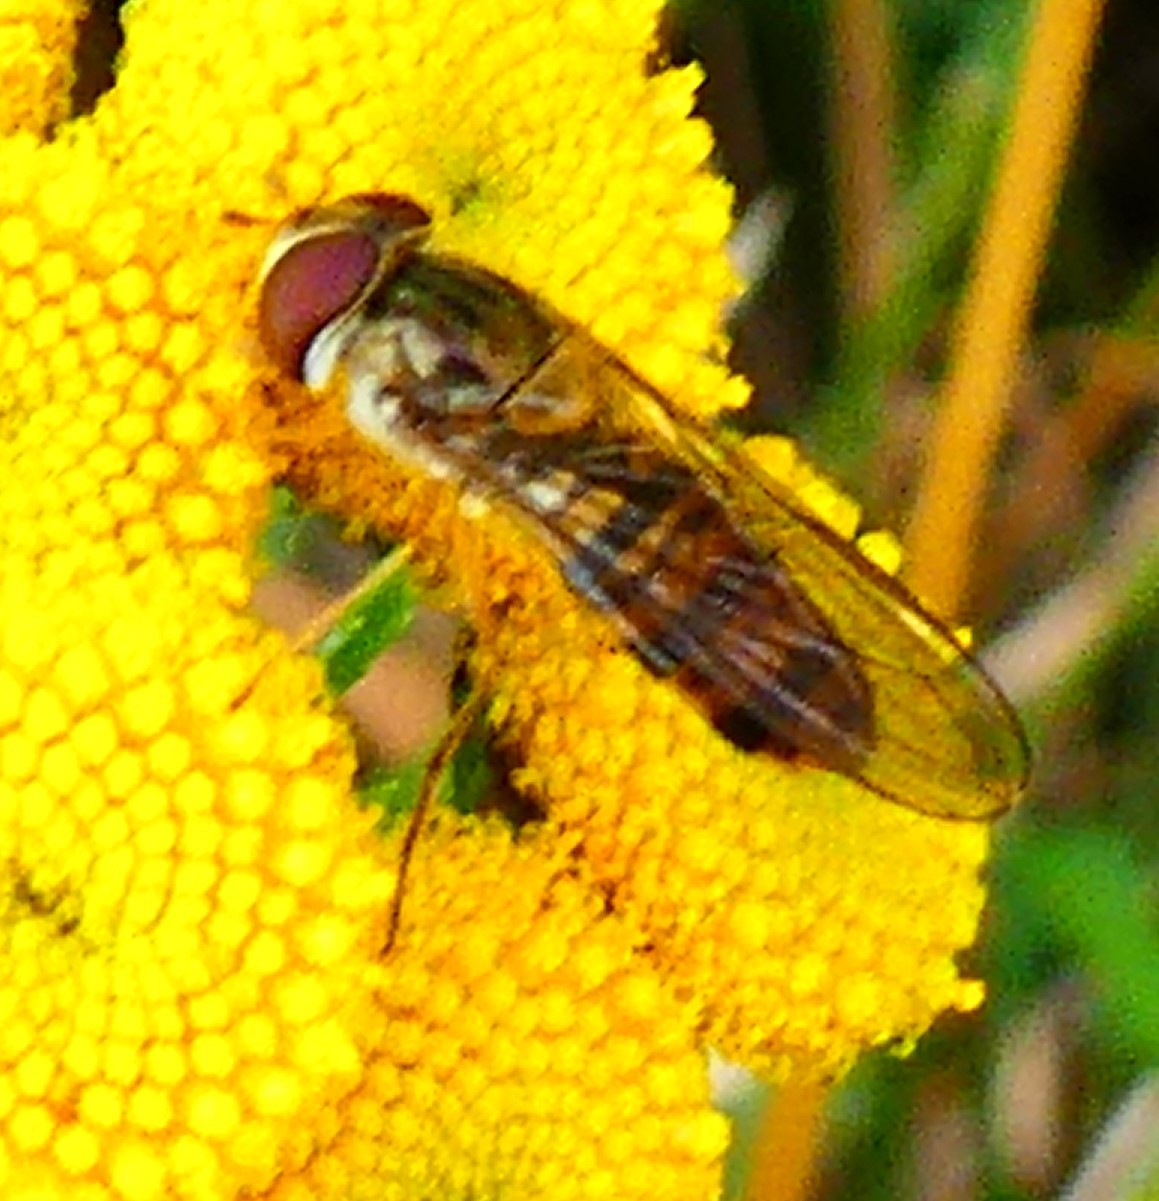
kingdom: Animalia
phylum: Arthropoda
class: Insecta
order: Diptera
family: Syrphidae
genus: Episyrphus
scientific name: Episyrphus balteatus
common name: Marmalade hoverfly
